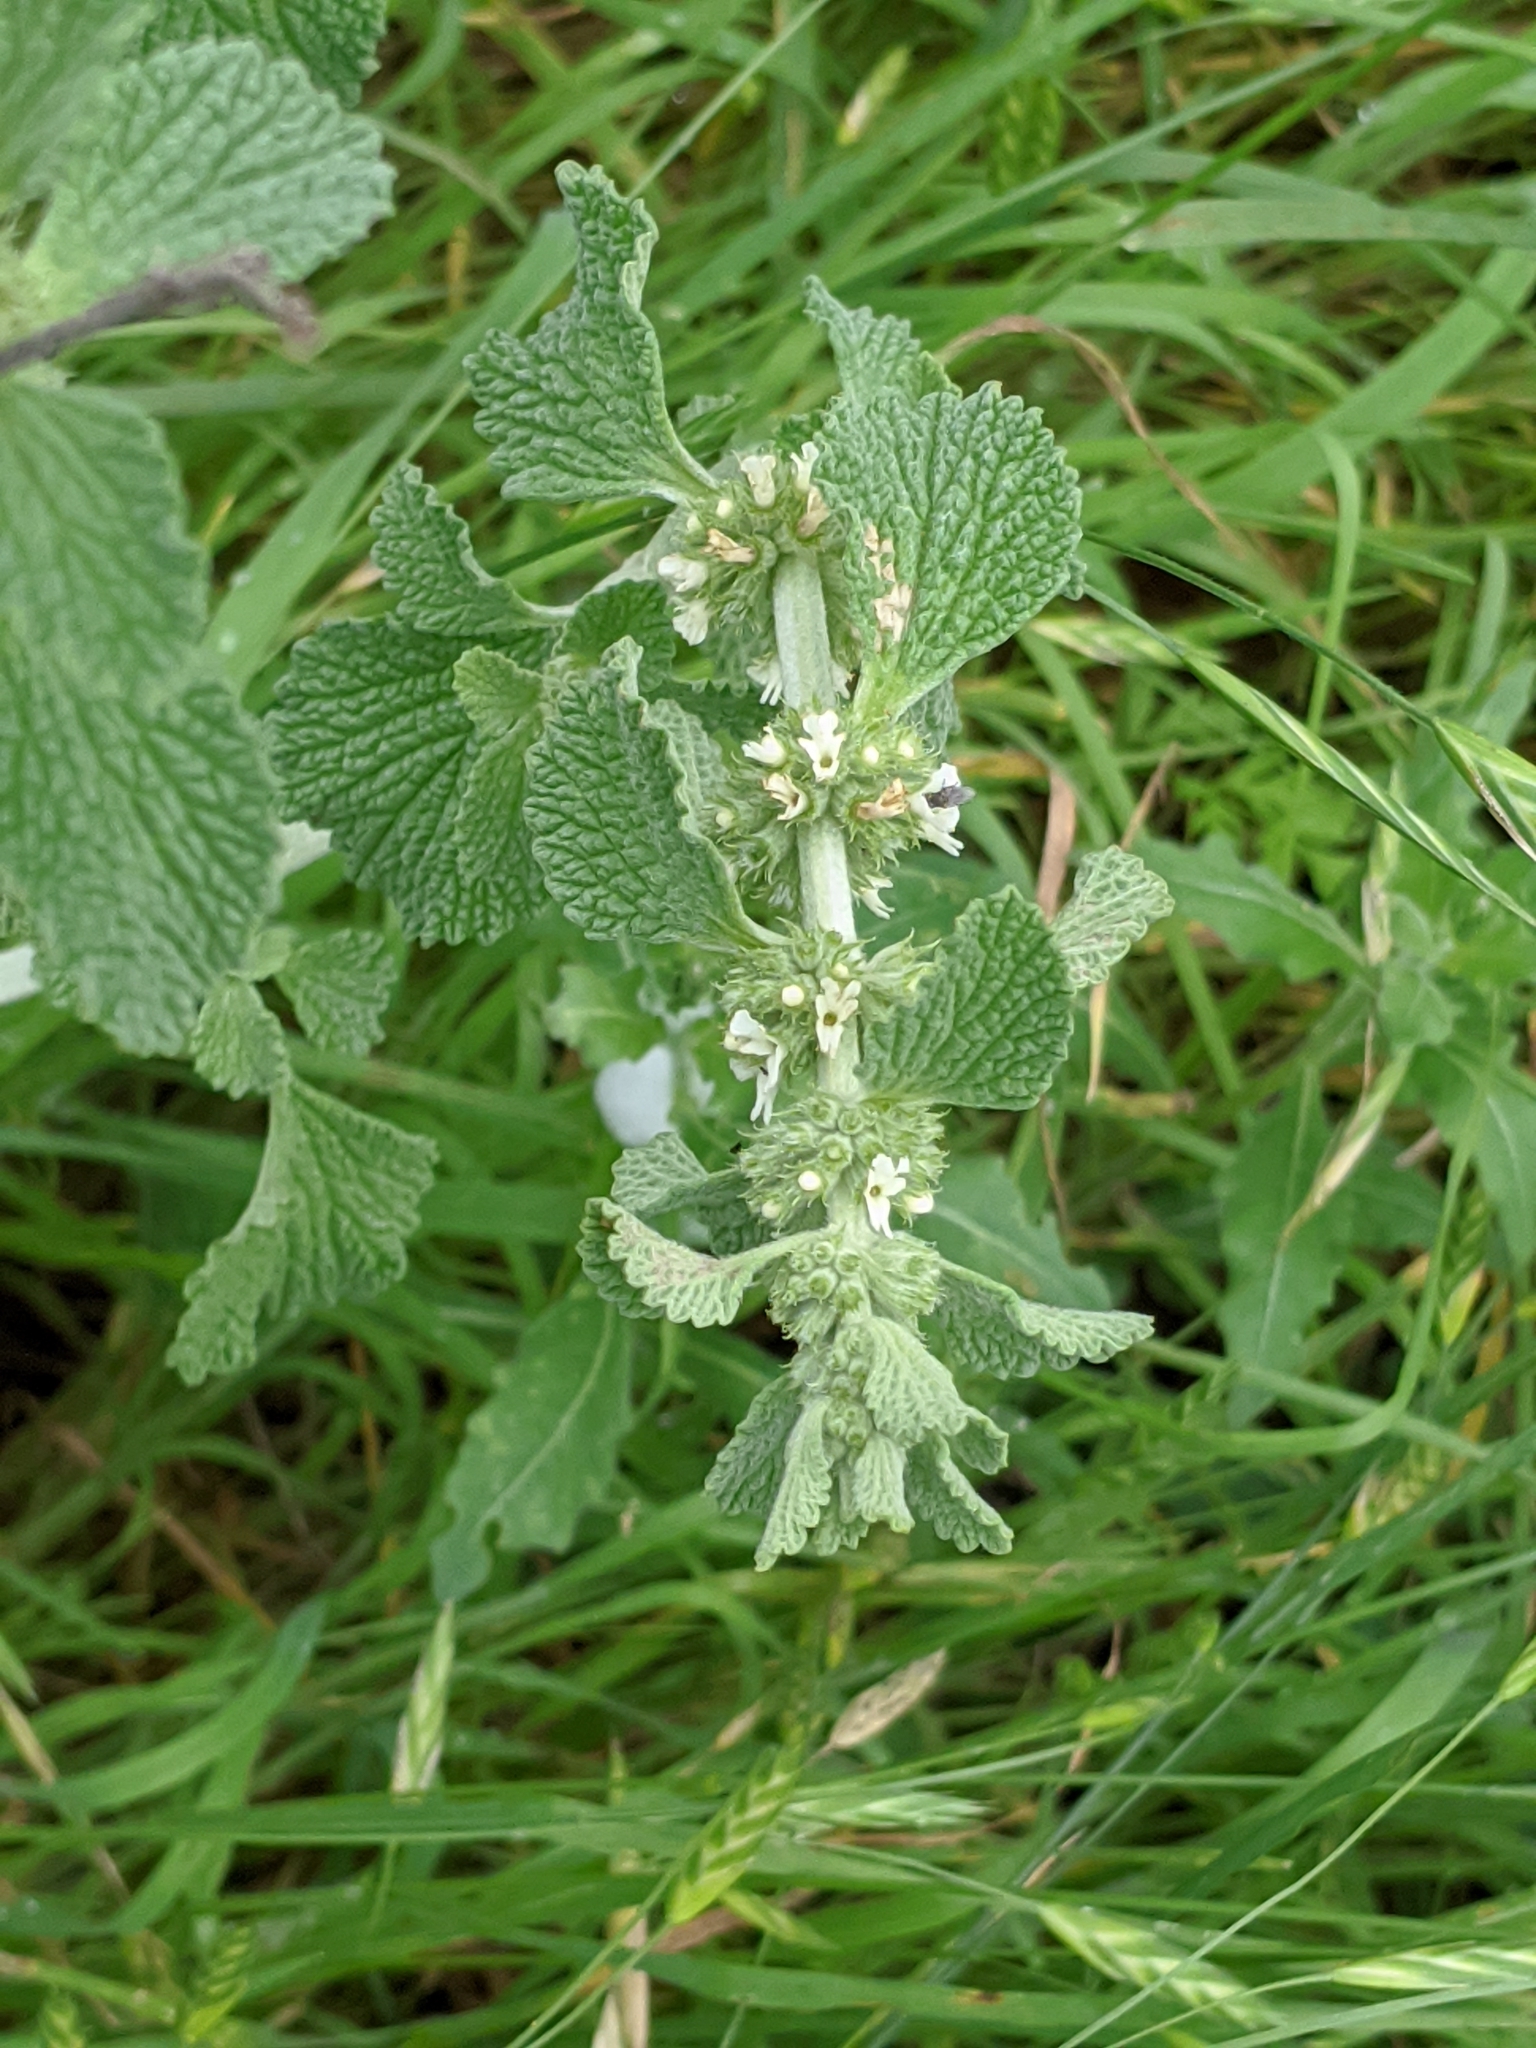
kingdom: Plantae
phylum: Tracheophyta
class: Magnoliopsida
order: Lamiales
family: Lamiaceae
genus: Marrubium
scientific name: Marrubium vulgare
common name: Horehound
